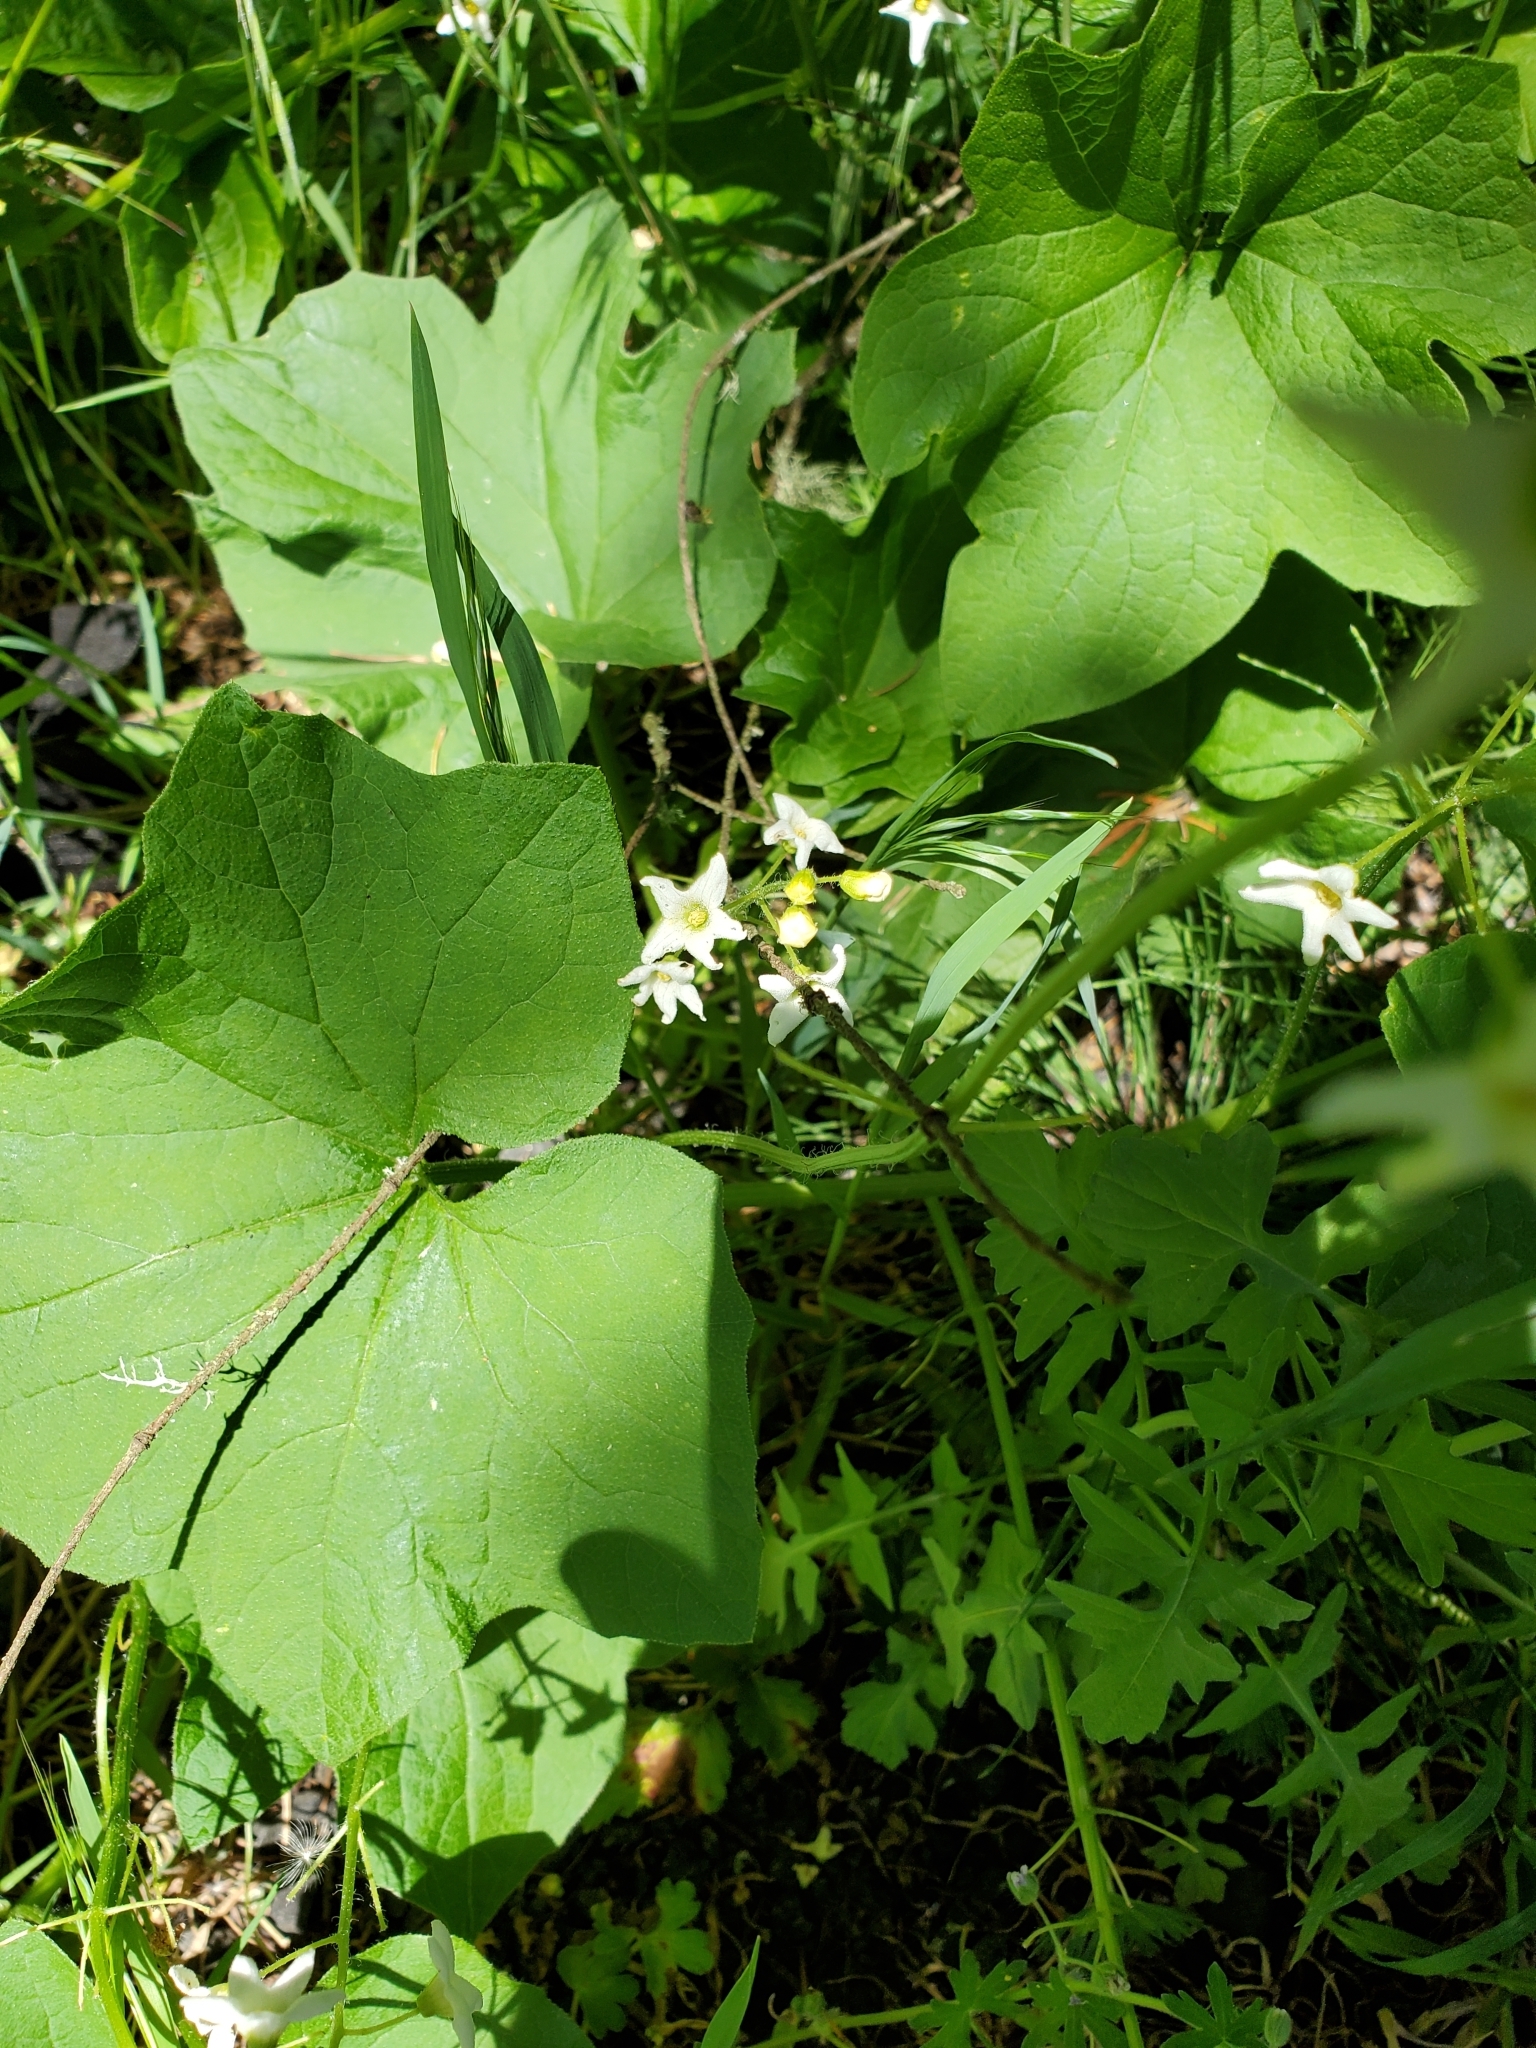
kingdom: Plantae
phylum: Tracheophyta
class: Magnoliopsida
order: Cucurbitales
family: Cucurbitaceae
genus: Marah
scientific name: Marah oregana
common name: Coastal manroot
